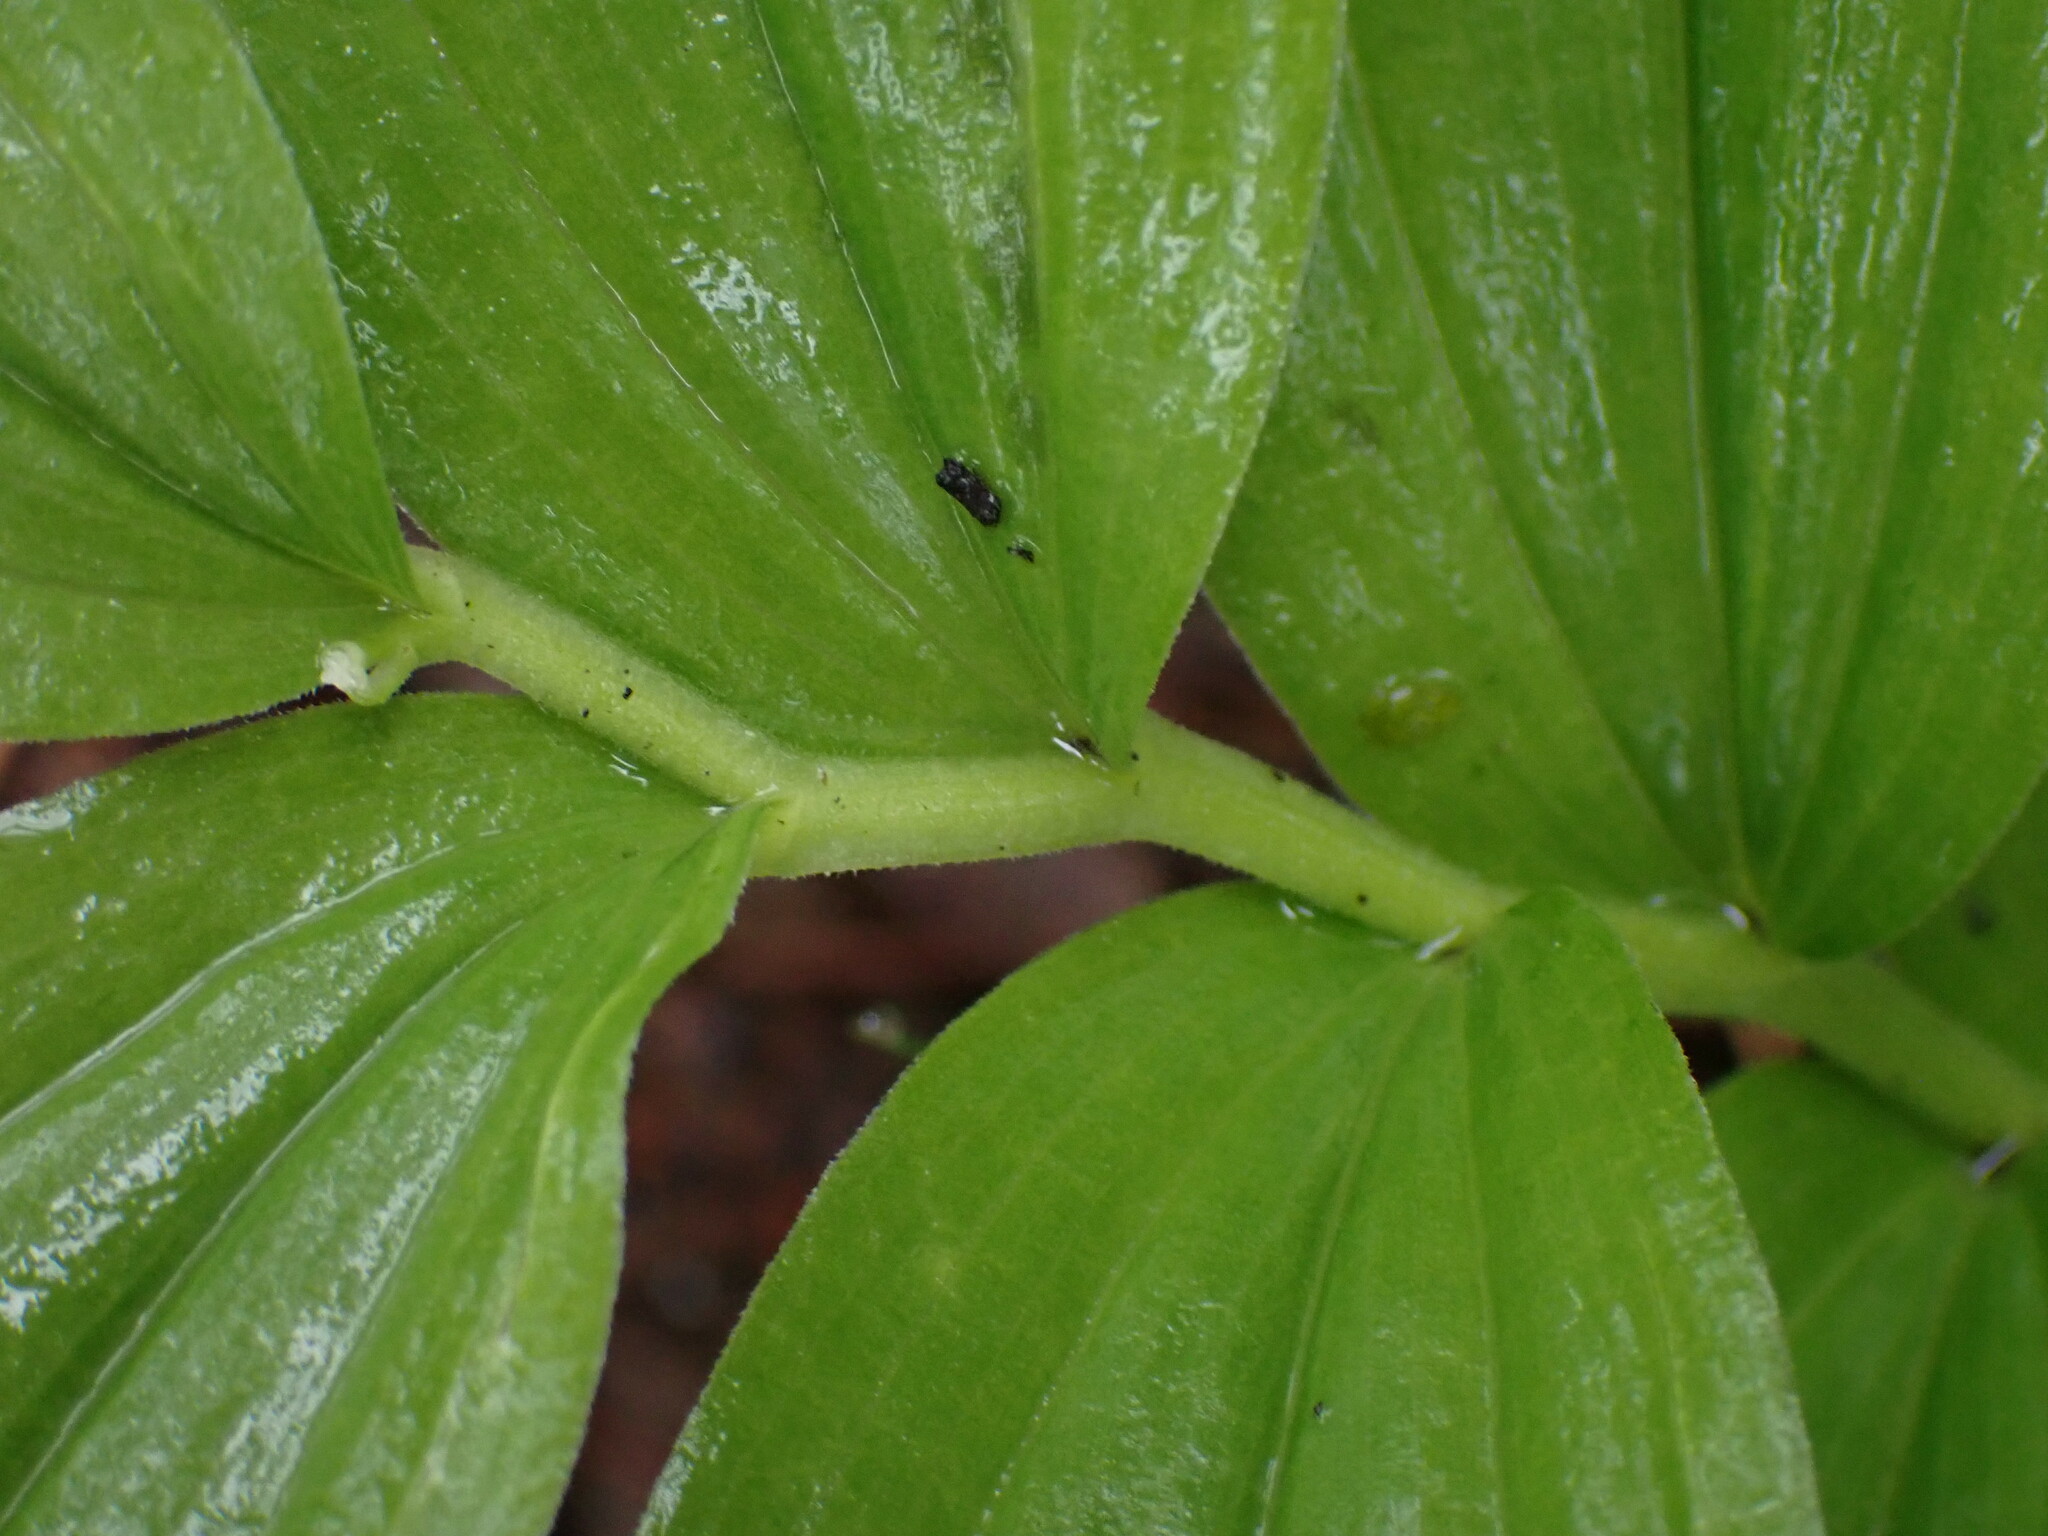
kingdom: Plantae
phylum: Tracheophyta
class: Liliopsida
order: Asparagales
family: Asparagaceae
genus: Maianthemum
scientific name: Maianthemum racemosum
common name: False spikenard
